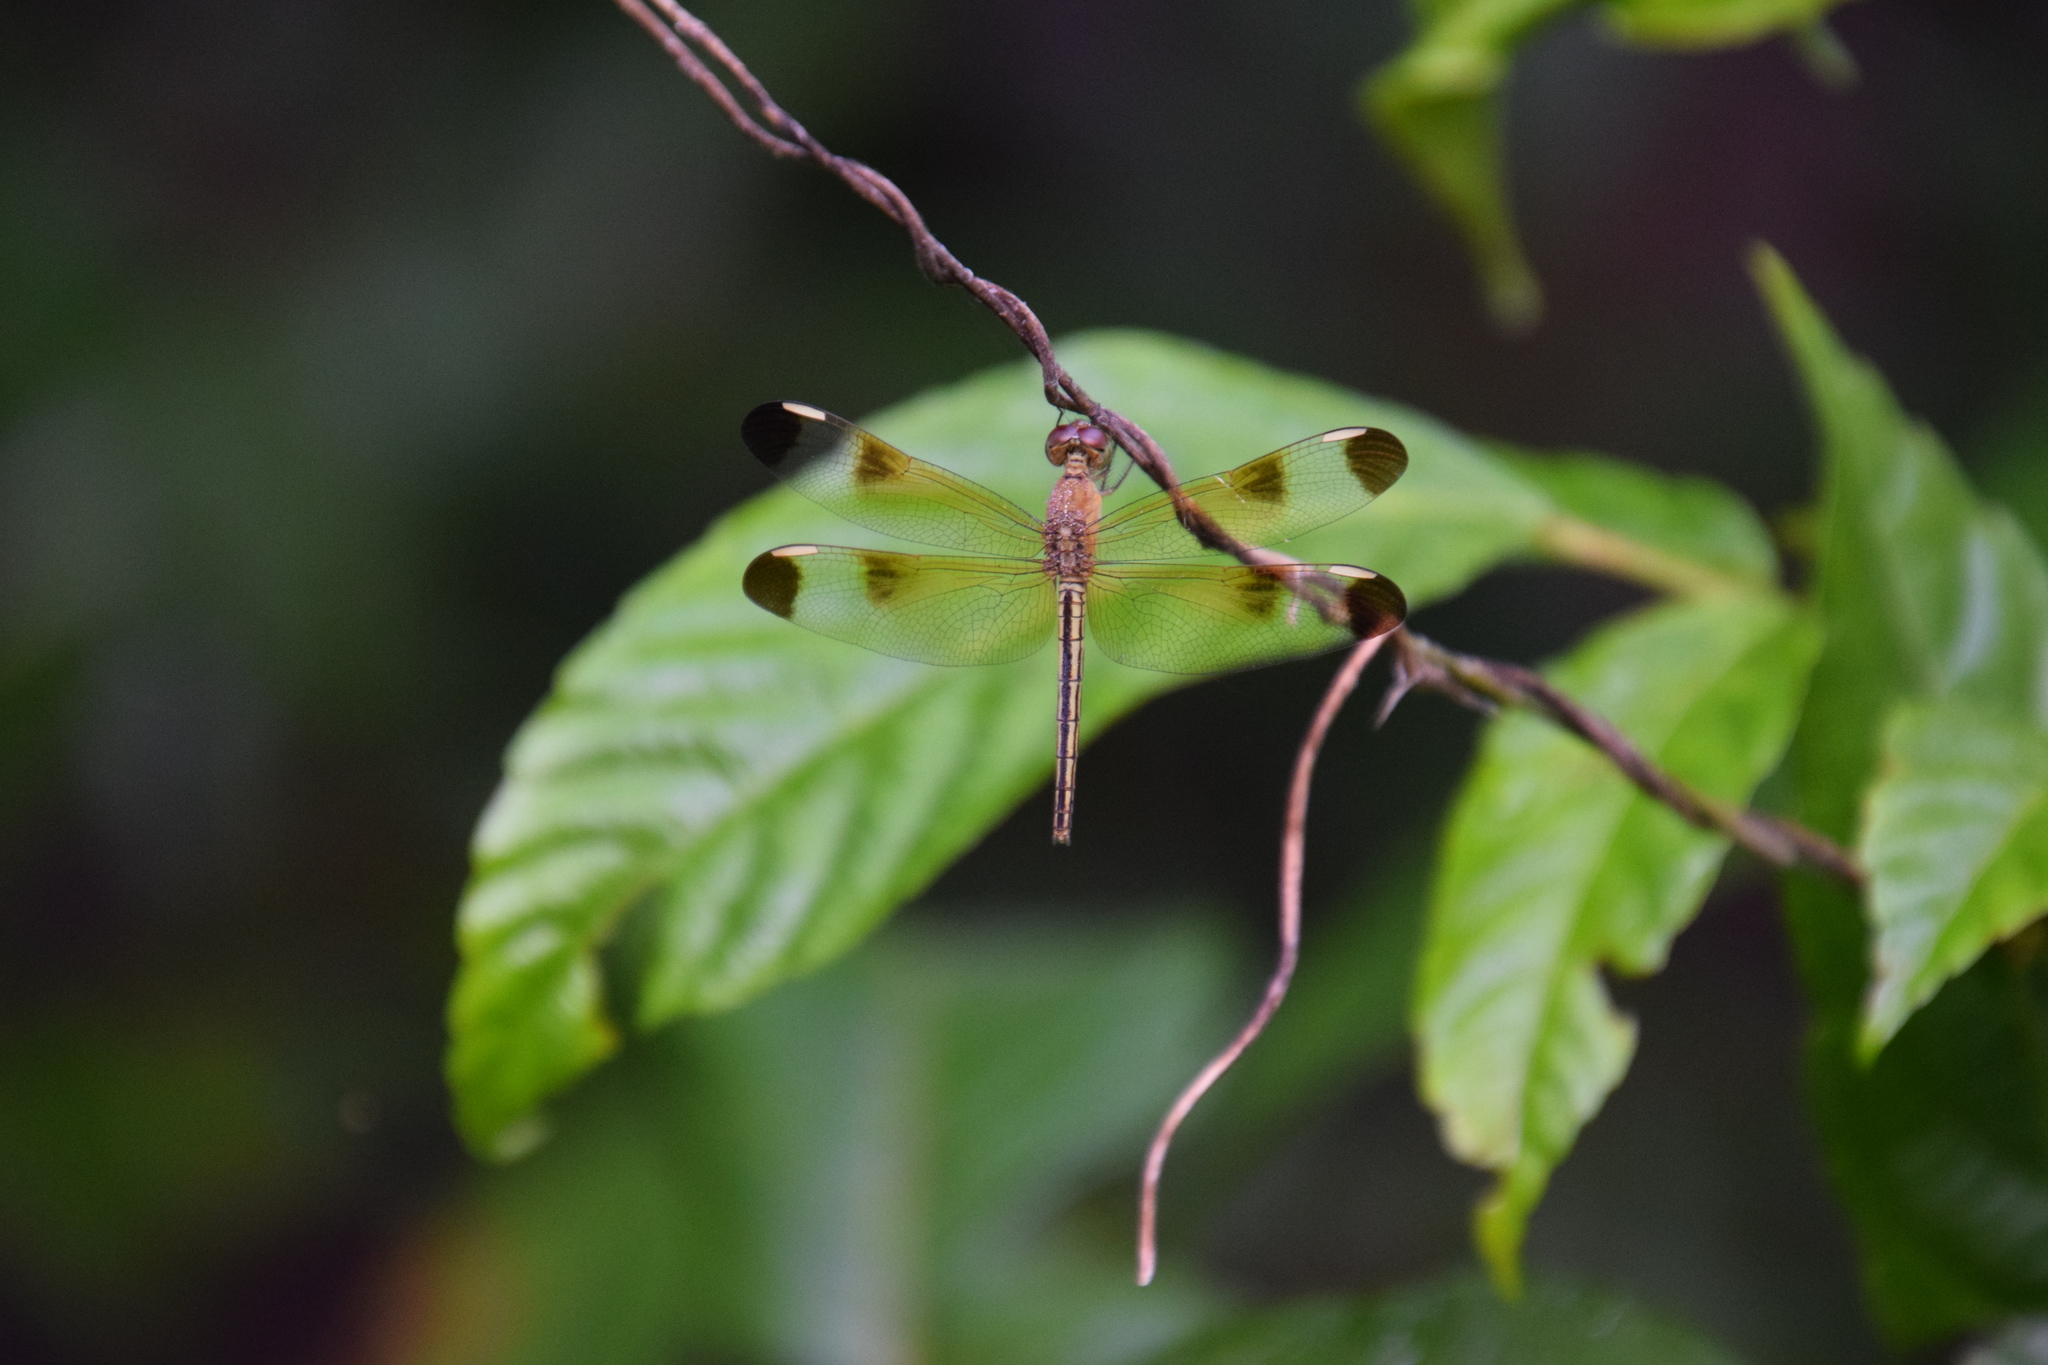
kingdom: Animalia
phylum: Arthropoda
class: Insecta
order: Odonata
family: Libellulidae
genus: Neurothemis
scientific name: Neurothemis stigmatizans
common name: Painted grasshawk
